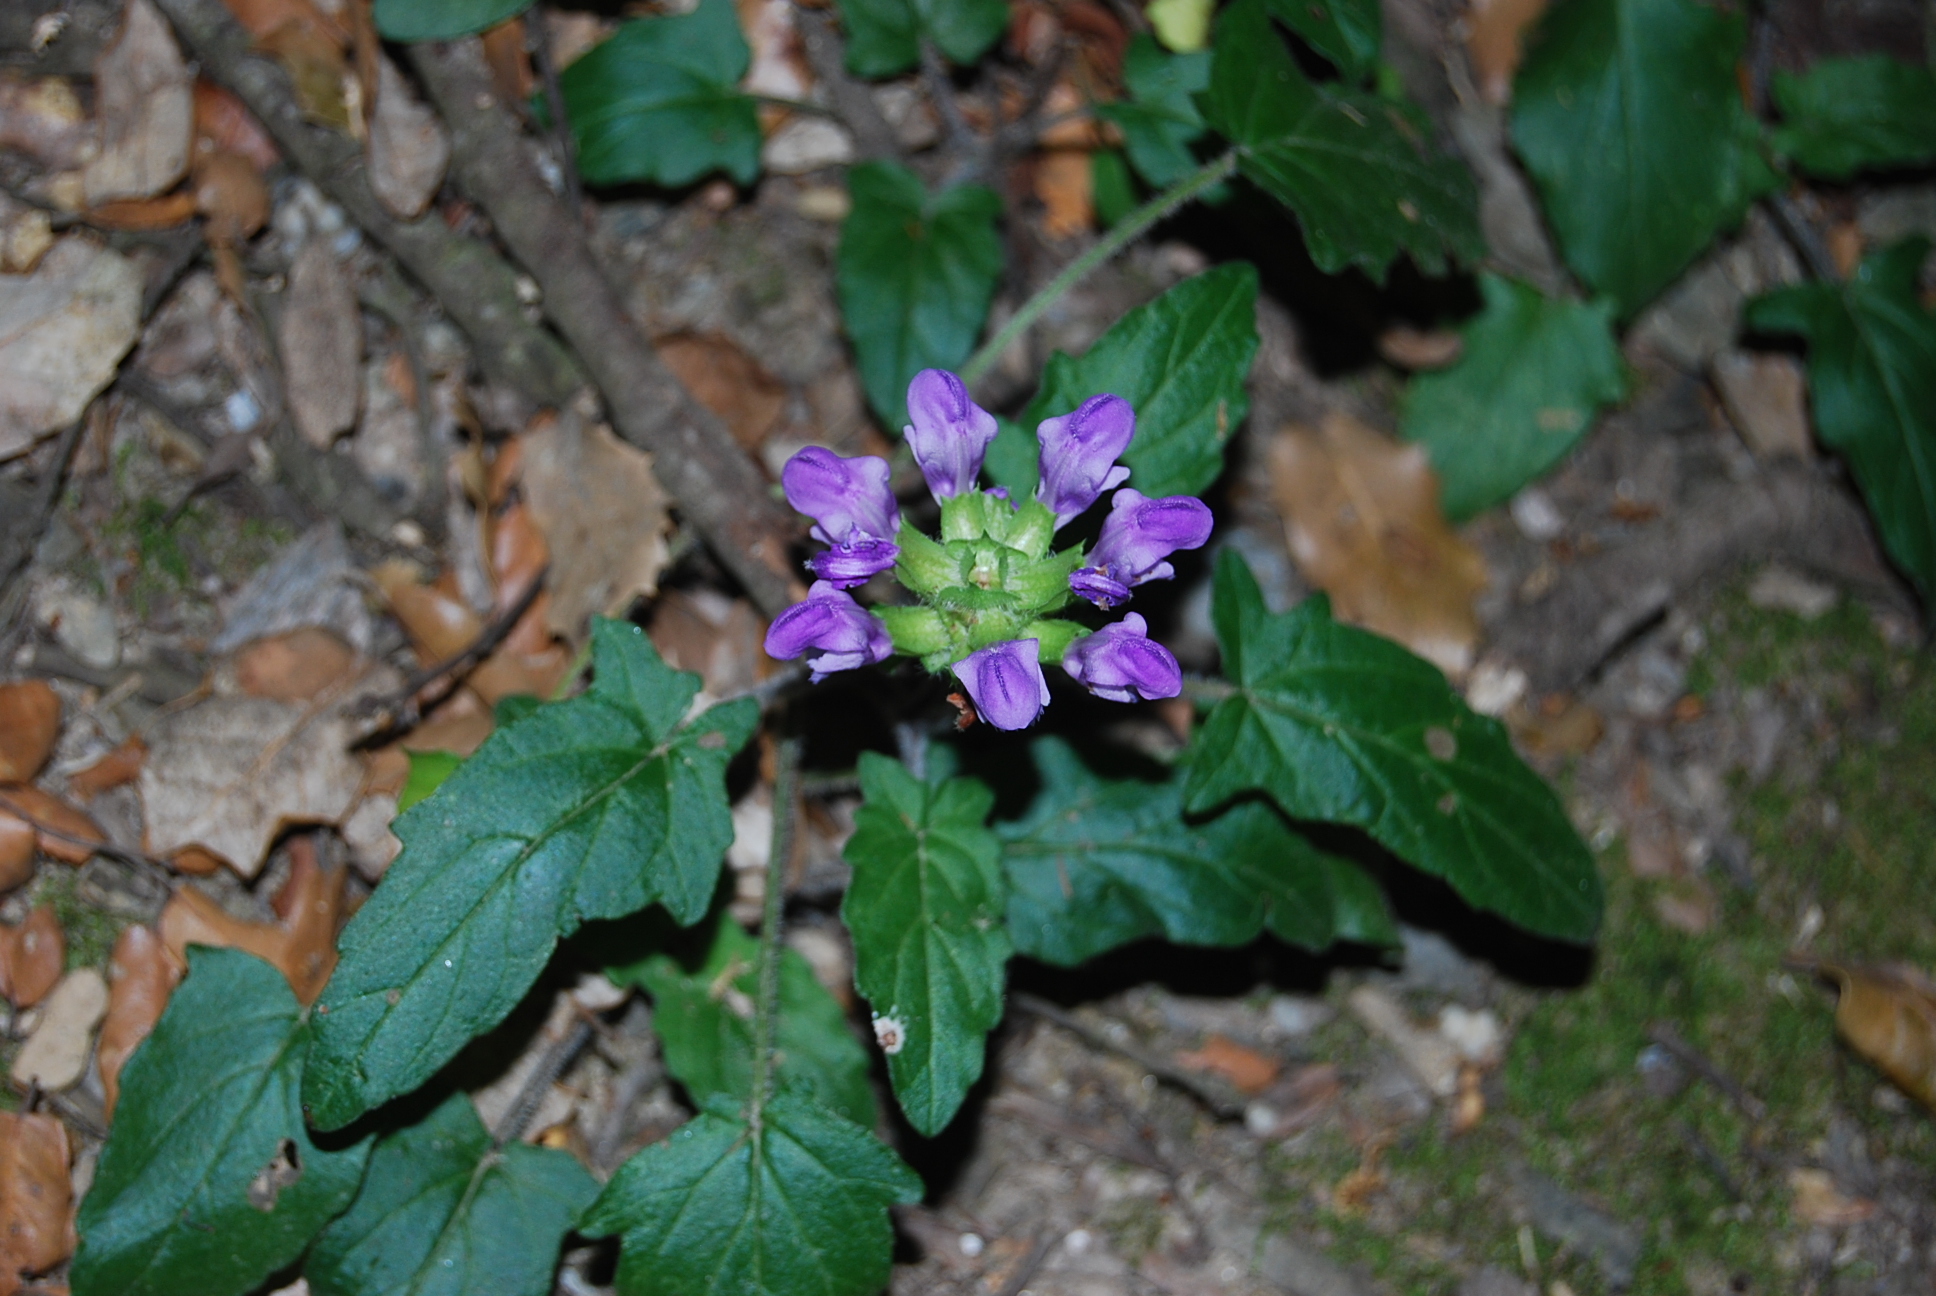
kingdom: Plantae
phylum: Tracheophyta
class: Magnoliopsida
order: Lamiales
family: Lamiaceae
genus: Prunella
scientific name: Prunella vulgaris
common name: Heal-all
